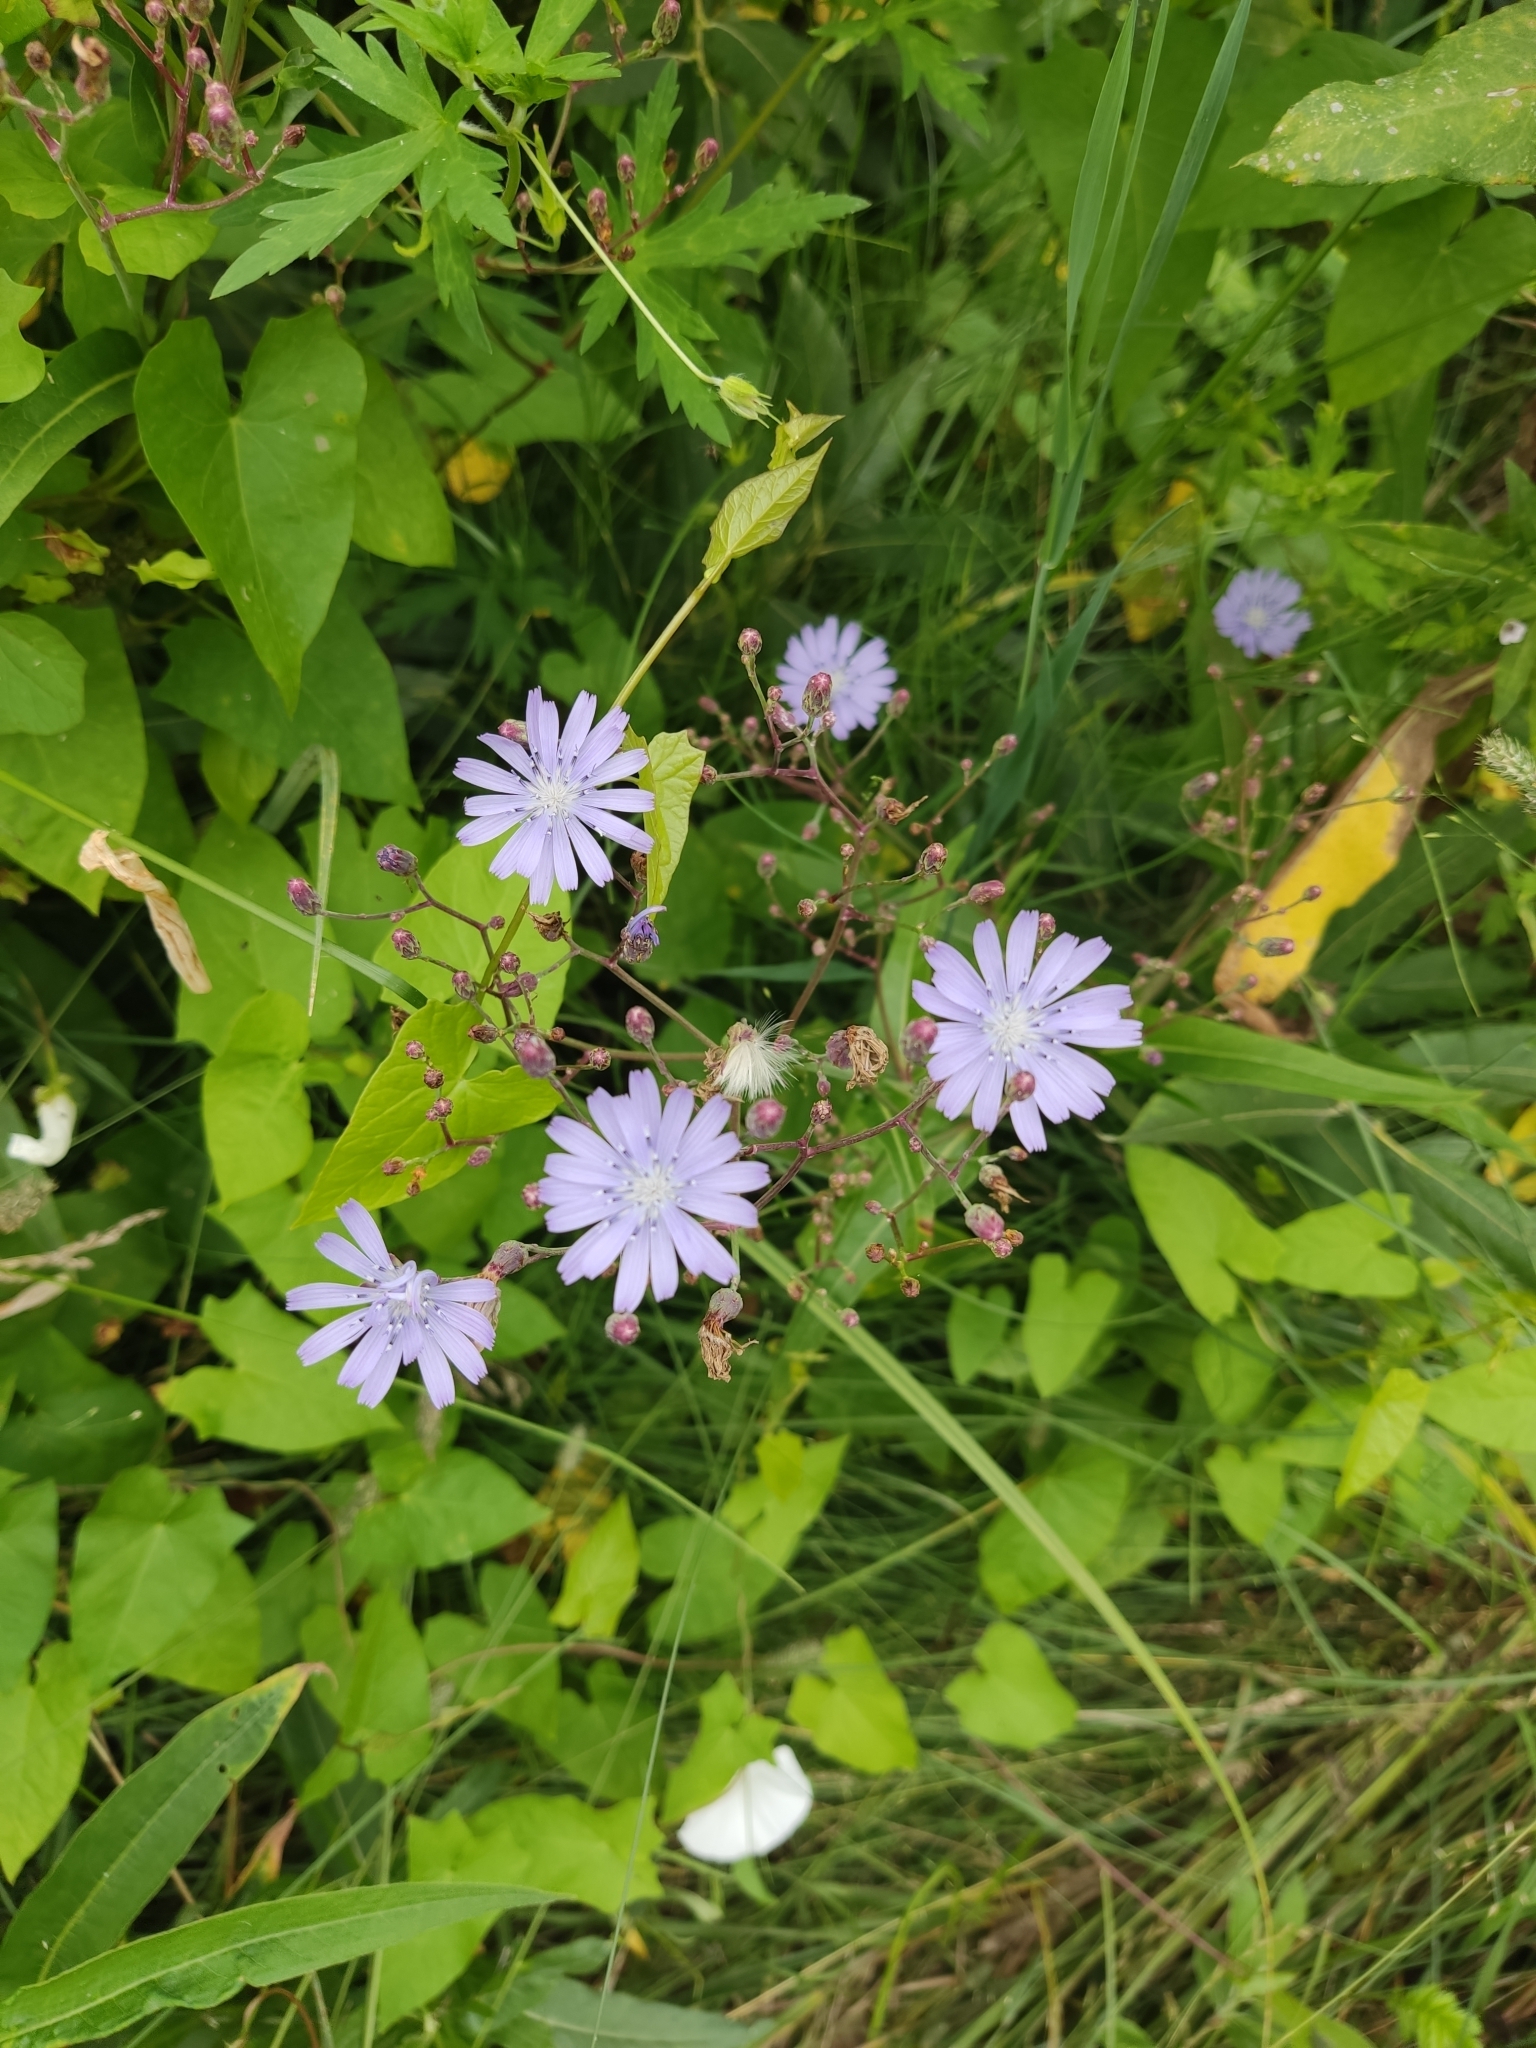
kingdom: Plantae
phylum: Tracheophyta
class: Magnoliopsida
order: Asterales
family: Asteraceae
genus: Lactuca
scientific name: Lactuca sibirica
